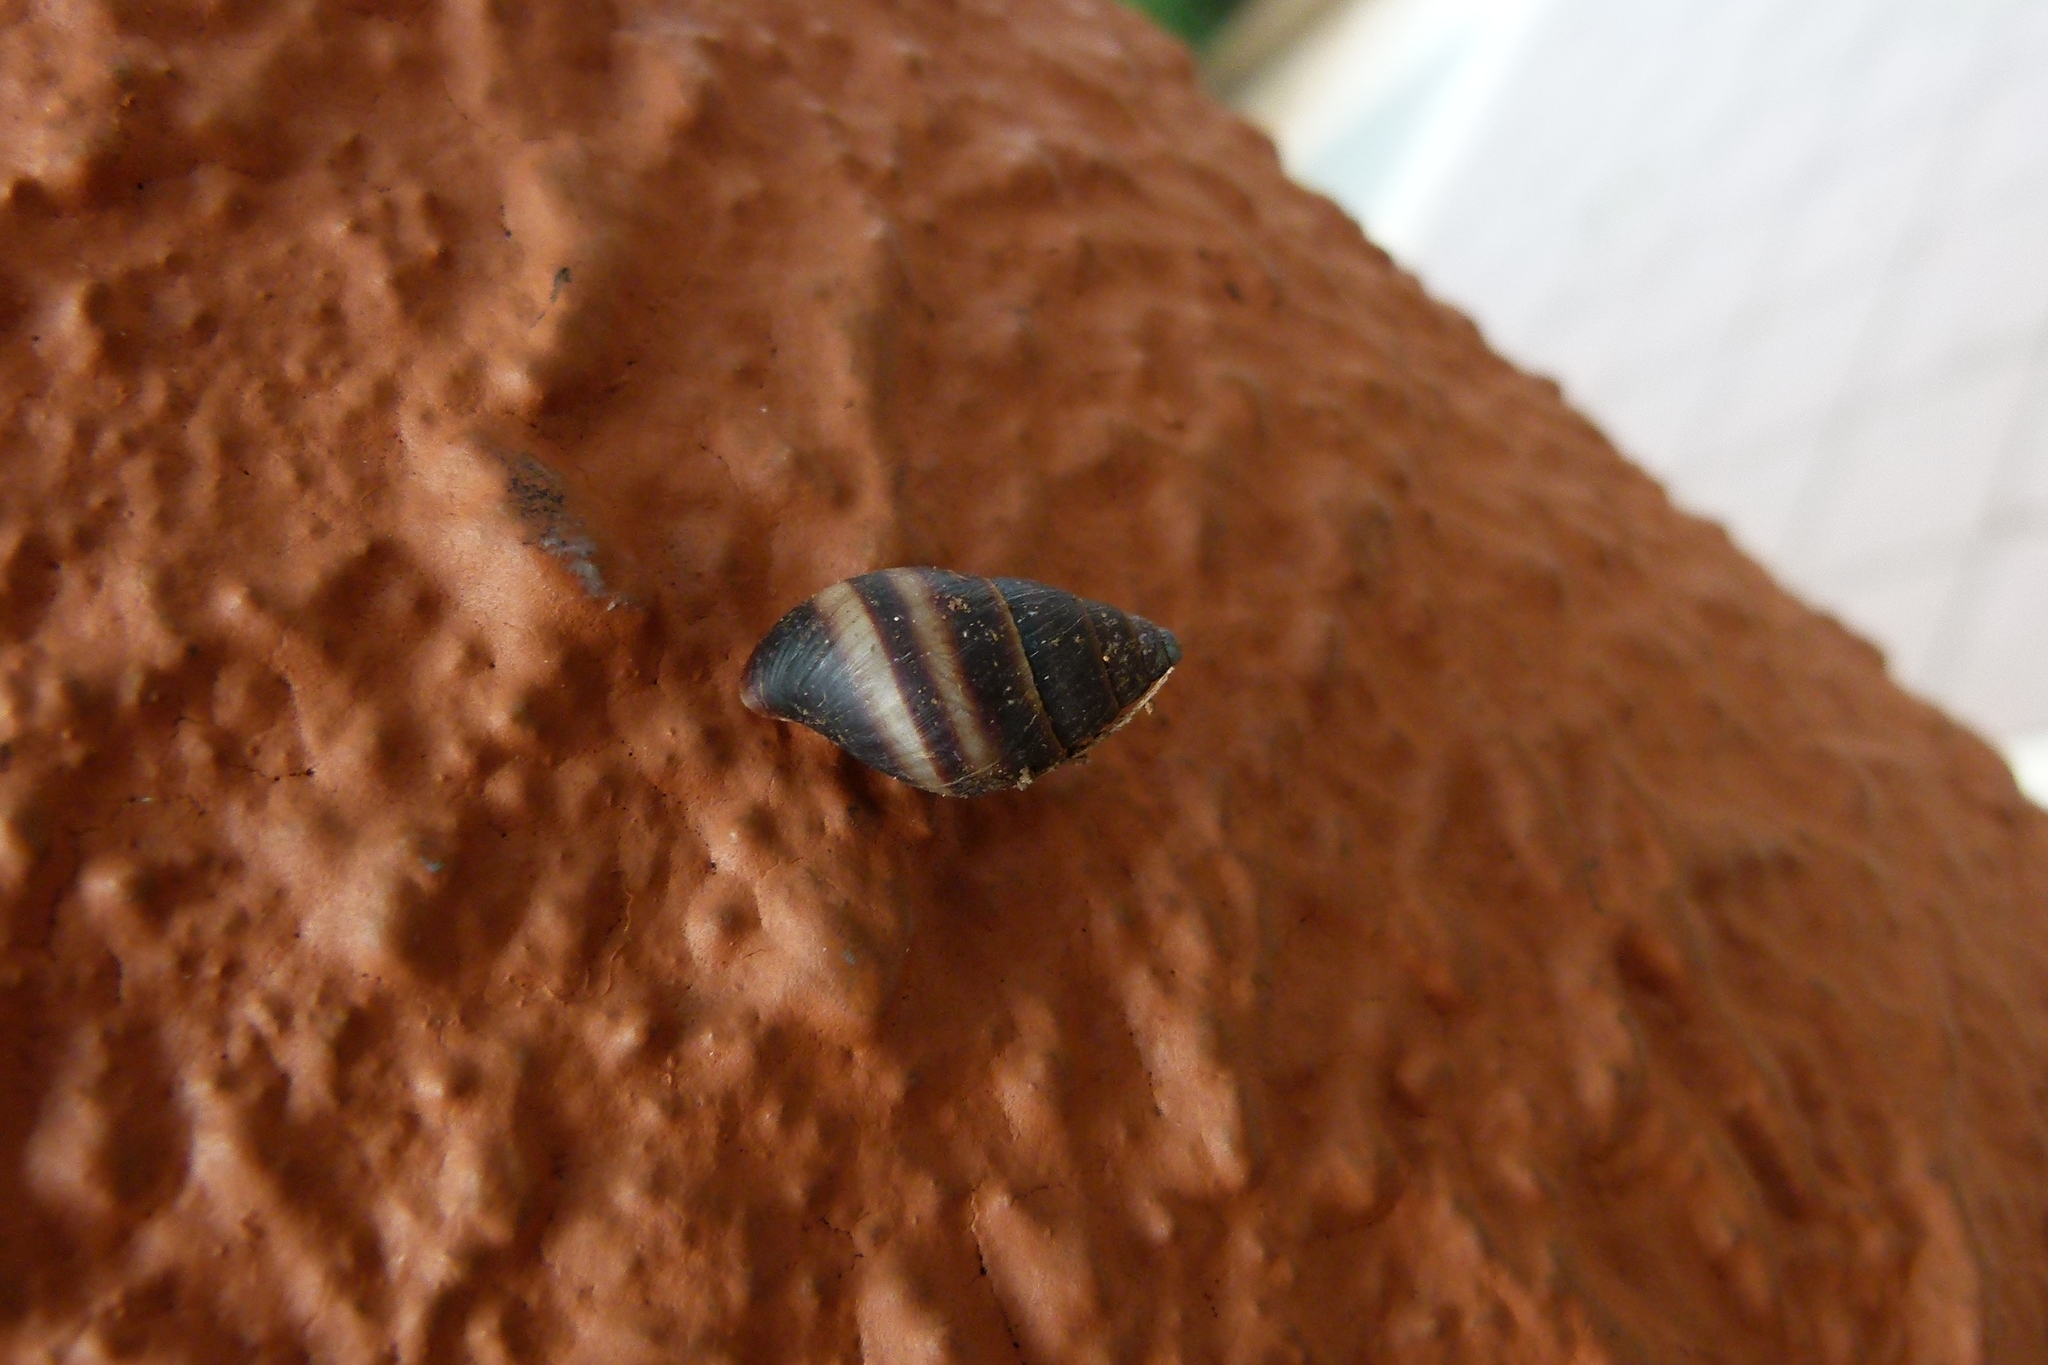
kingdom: Animalia
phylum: Mollusca
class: Gastropoda
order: Stylommatophora
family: Bulimulidae
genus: Bulimulus
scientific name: Bulimulus guadalupensis
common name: West indian bulimulus
